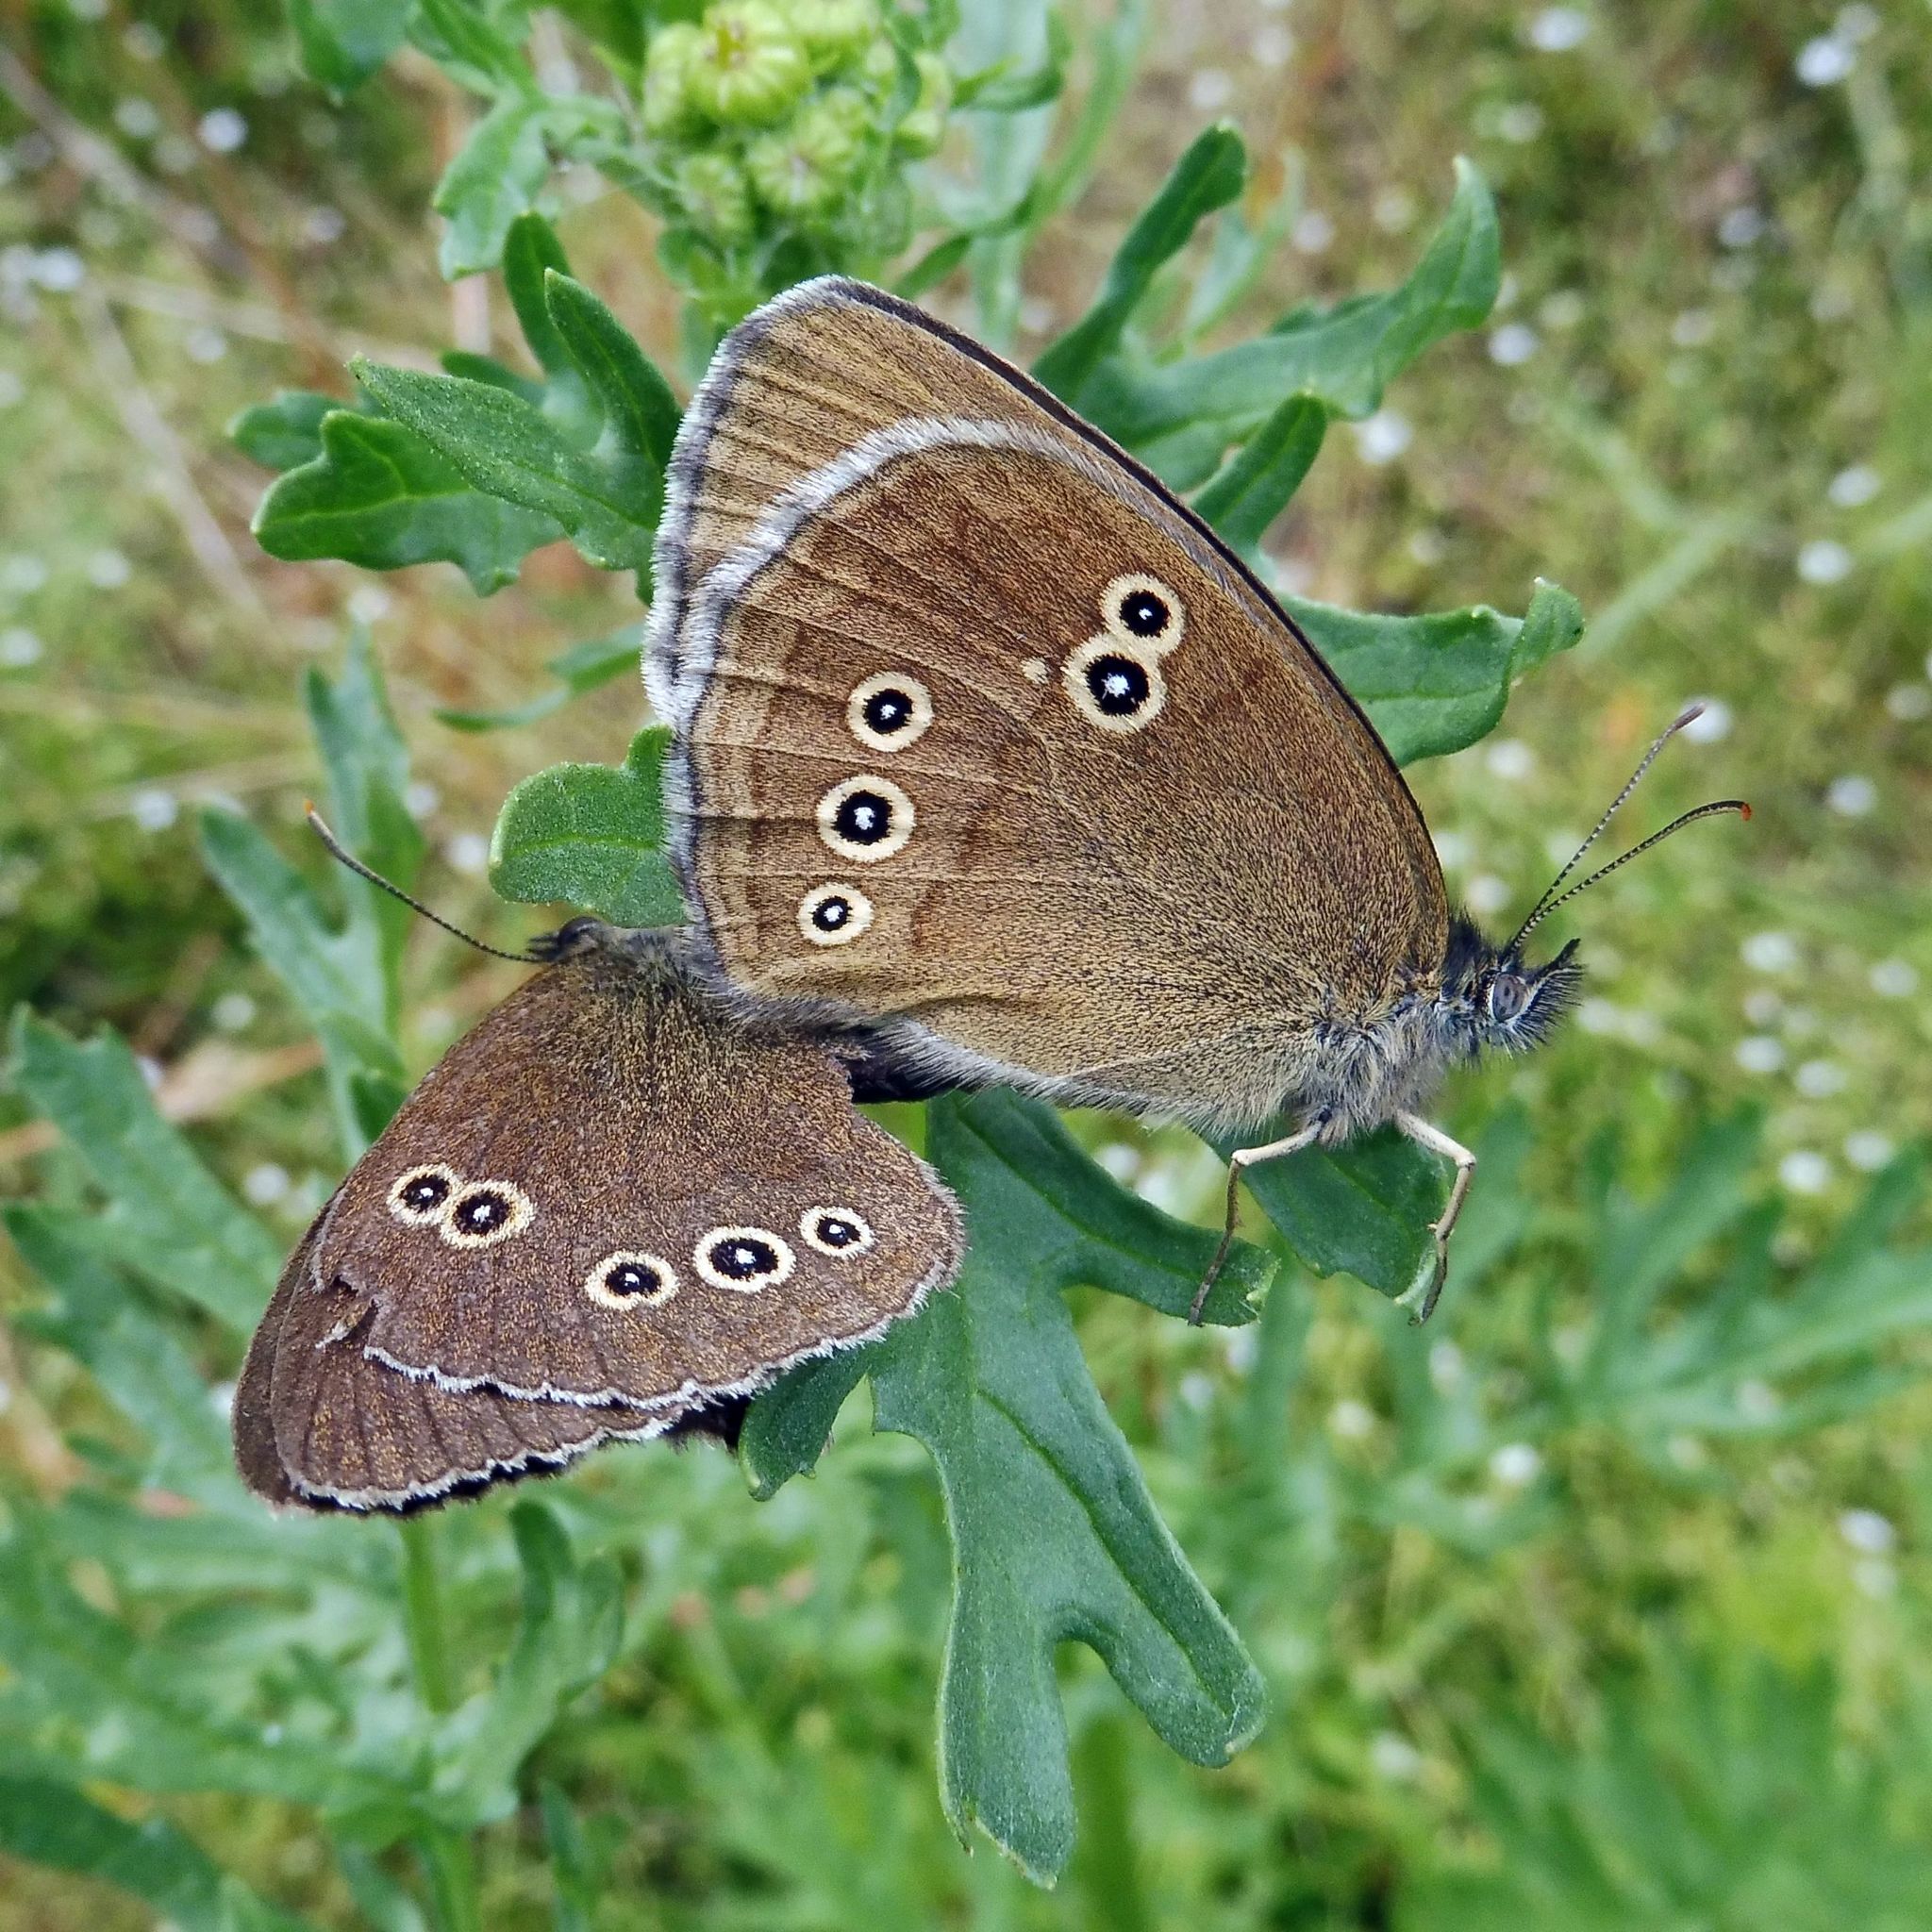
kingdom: Animalia
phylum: Arthropoda
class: Insecta
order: Lepidoptera
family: Nymphalidae
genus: Aphantopus
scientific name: Aphantopus hyperantus
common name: Ringlet
